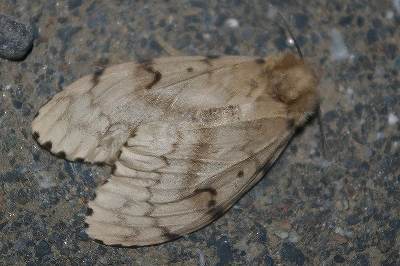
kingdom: Animalia
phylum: Arthropoda
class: Insecta
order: Lepidoptera
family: Erebidae
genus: Lymantria
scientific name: Lymantria dispar
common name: Gypsy moth
